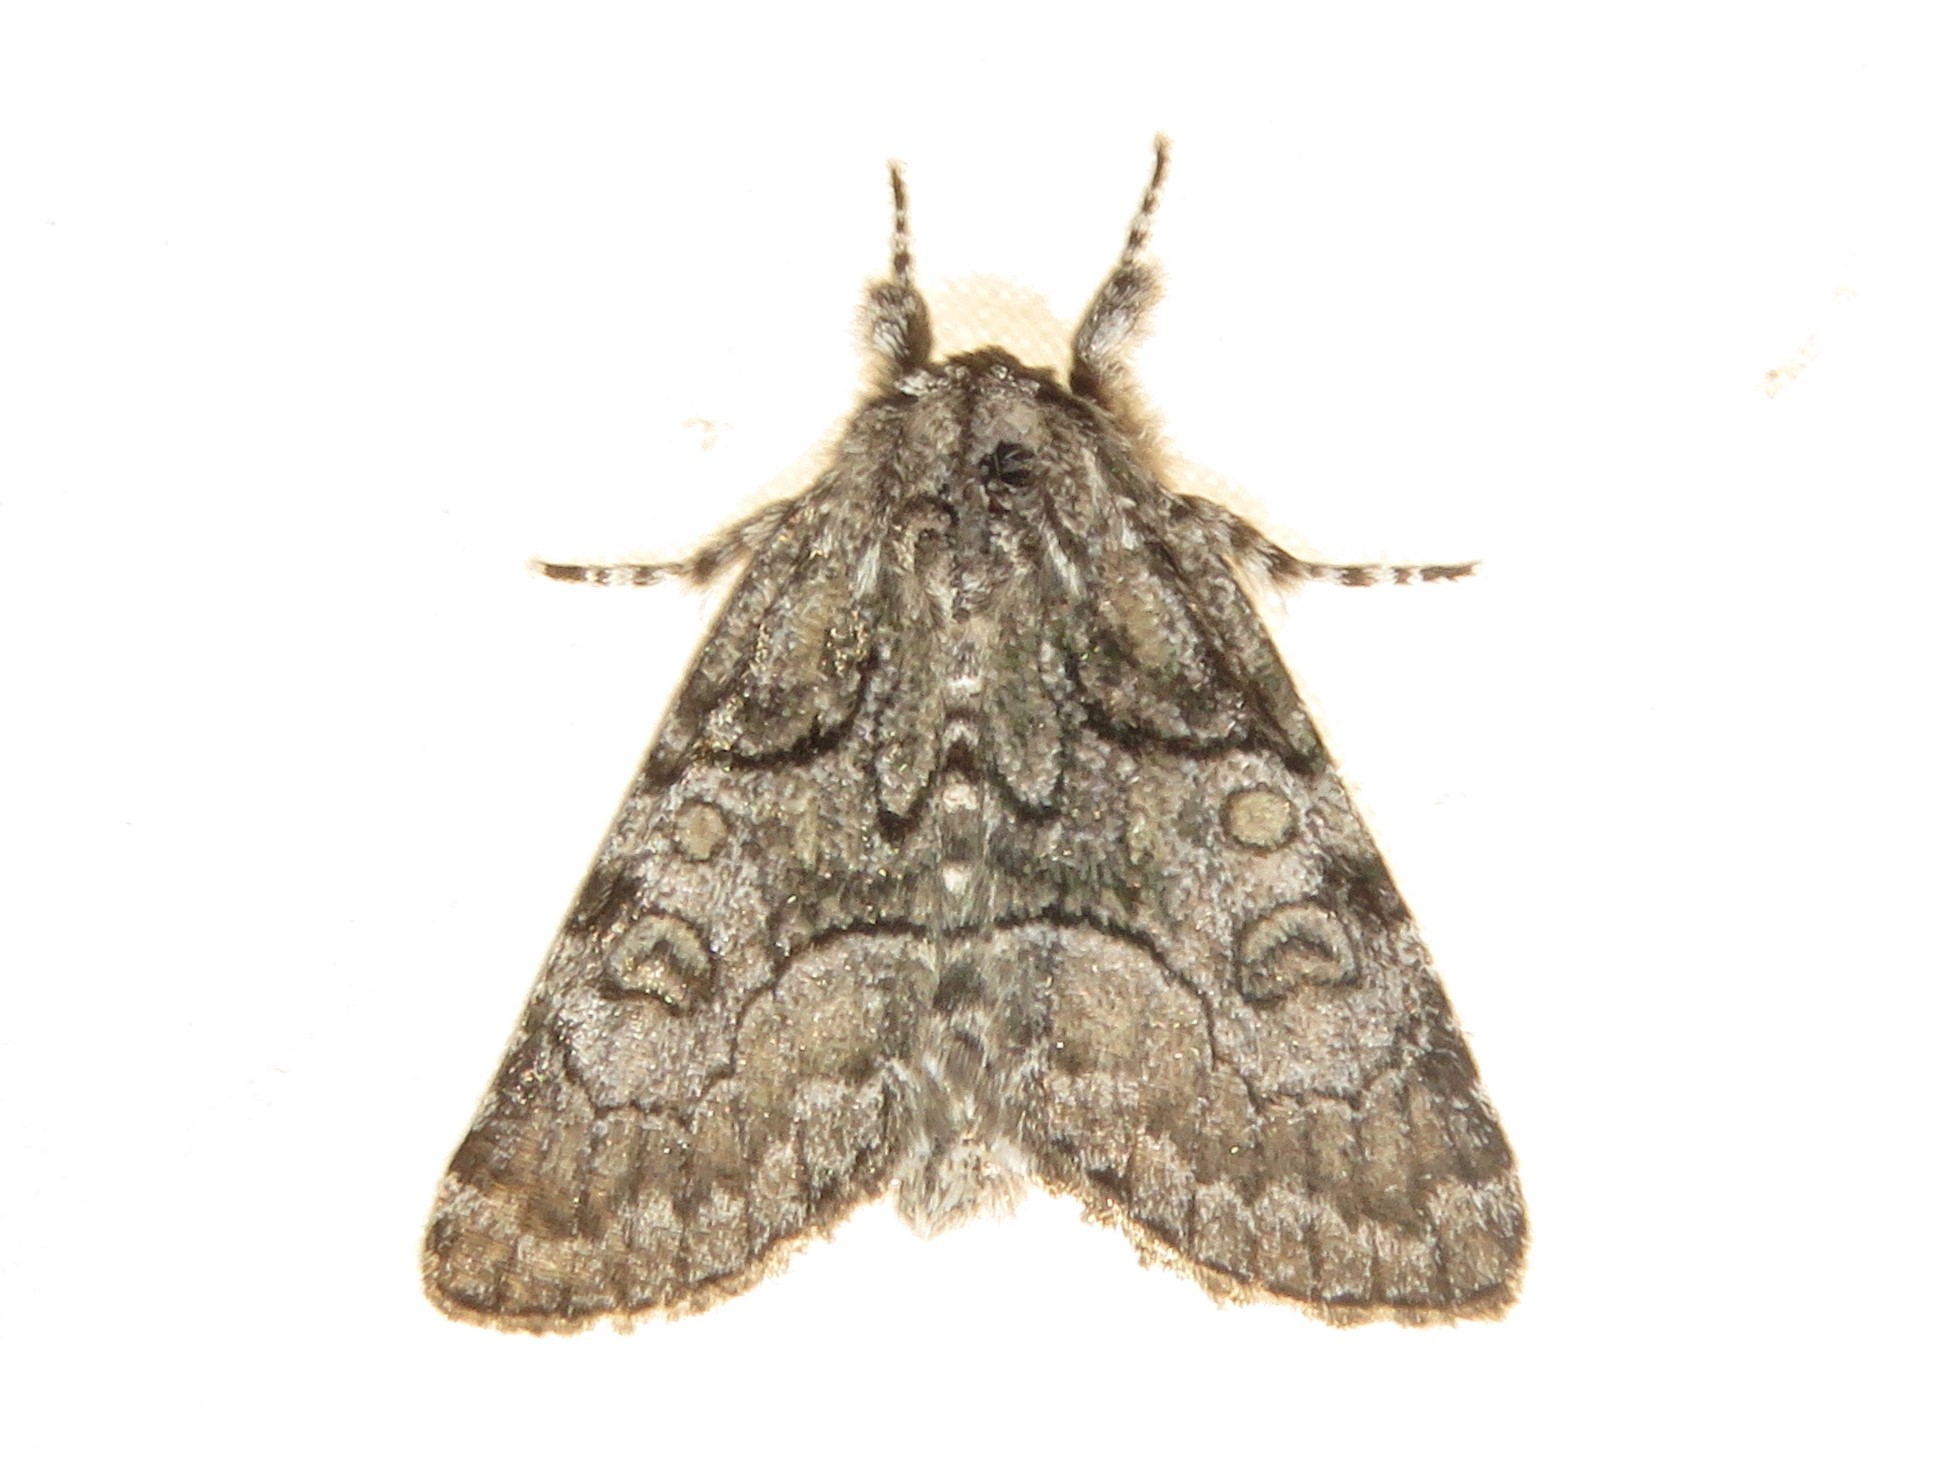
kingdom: Animalia
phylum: Arthropoda
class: Insecta
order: Lepidoptera
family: Noctuidae
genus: Raphia
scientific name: Raphia frater
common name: Brother
